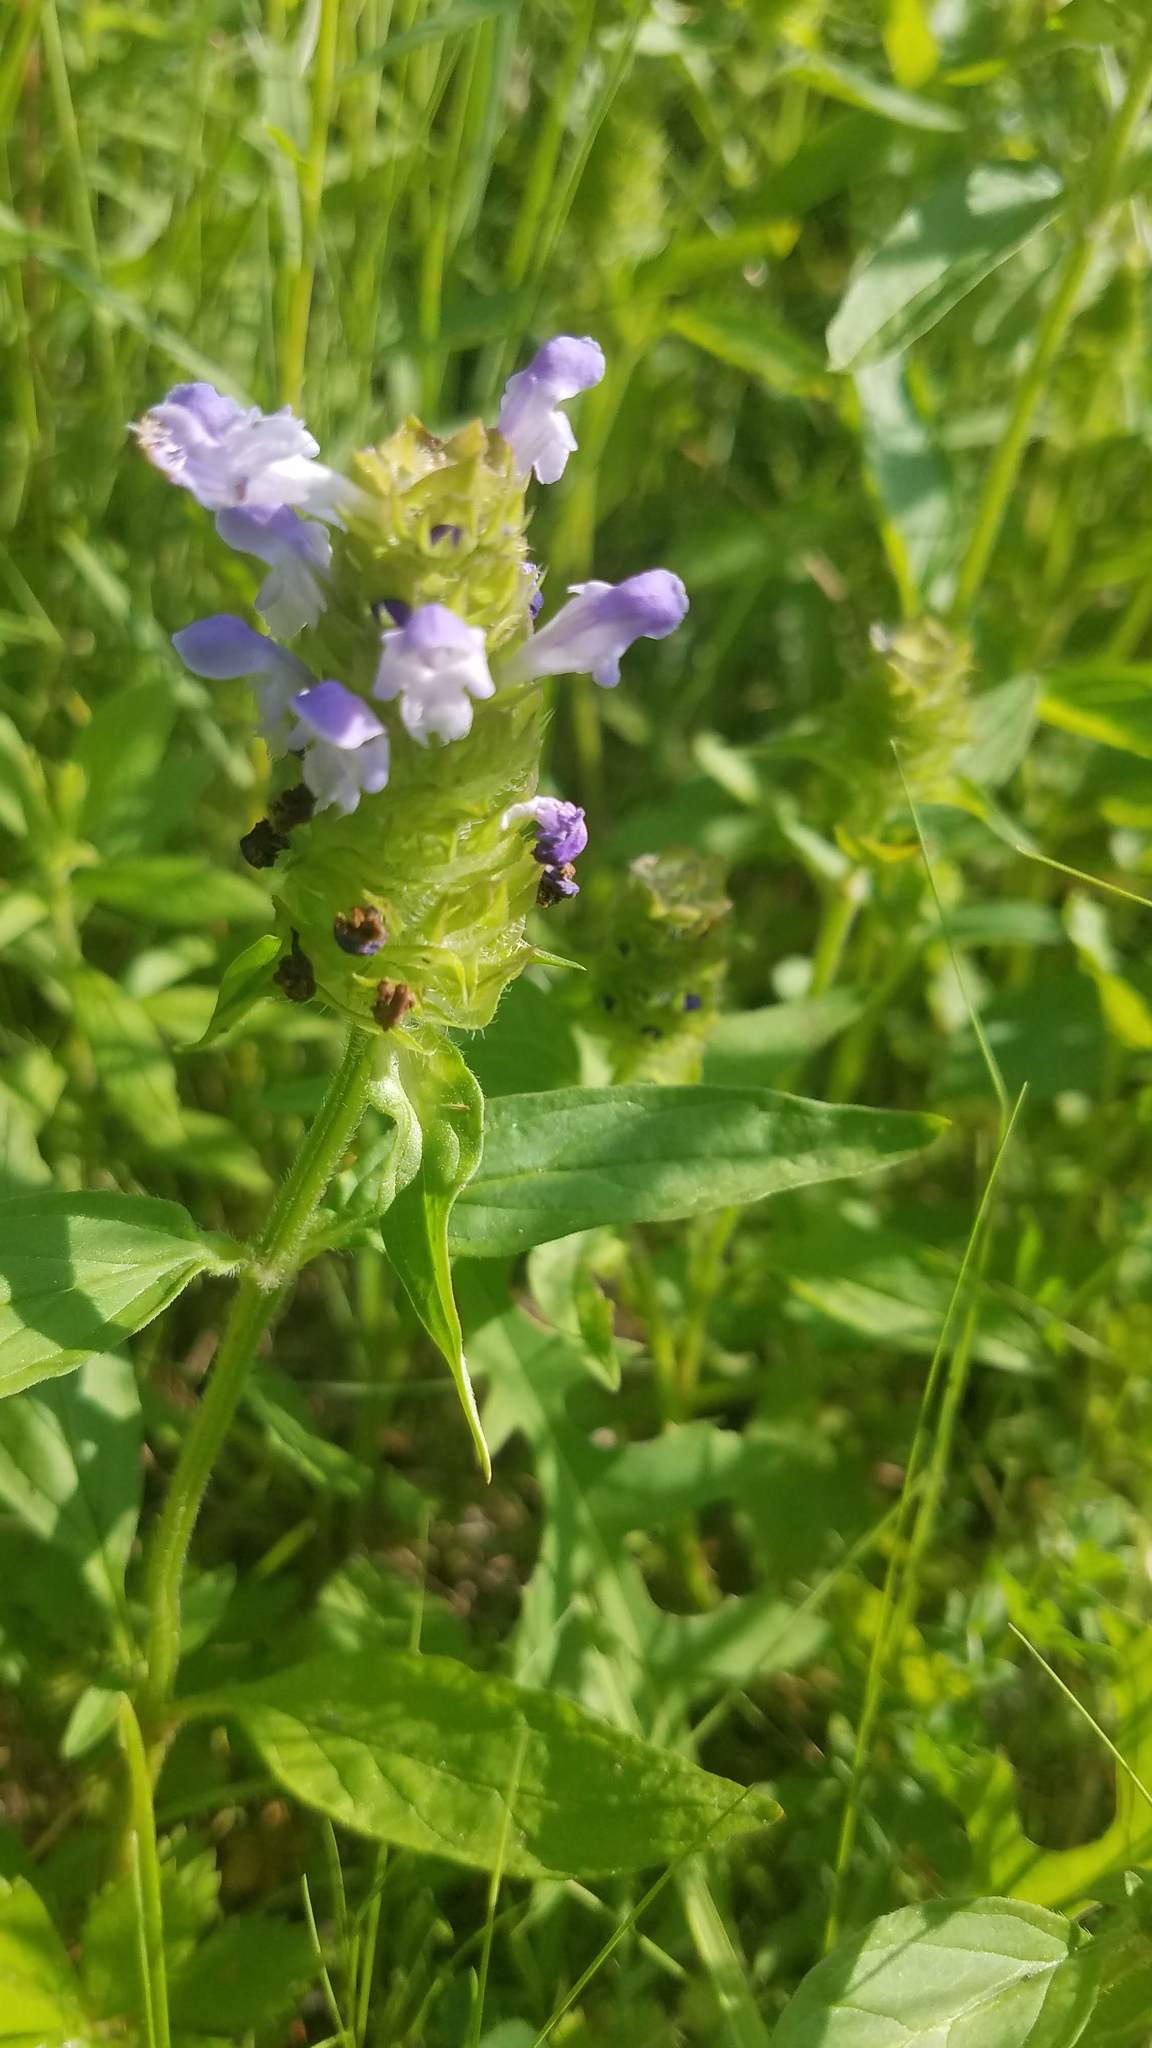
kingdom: Plantae
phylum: Tracheophyta
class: Magnoliopsida
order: Lamiales
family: Lamiaceae
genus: Prunella
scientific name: Prunella vulgaris
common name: Heal-all
